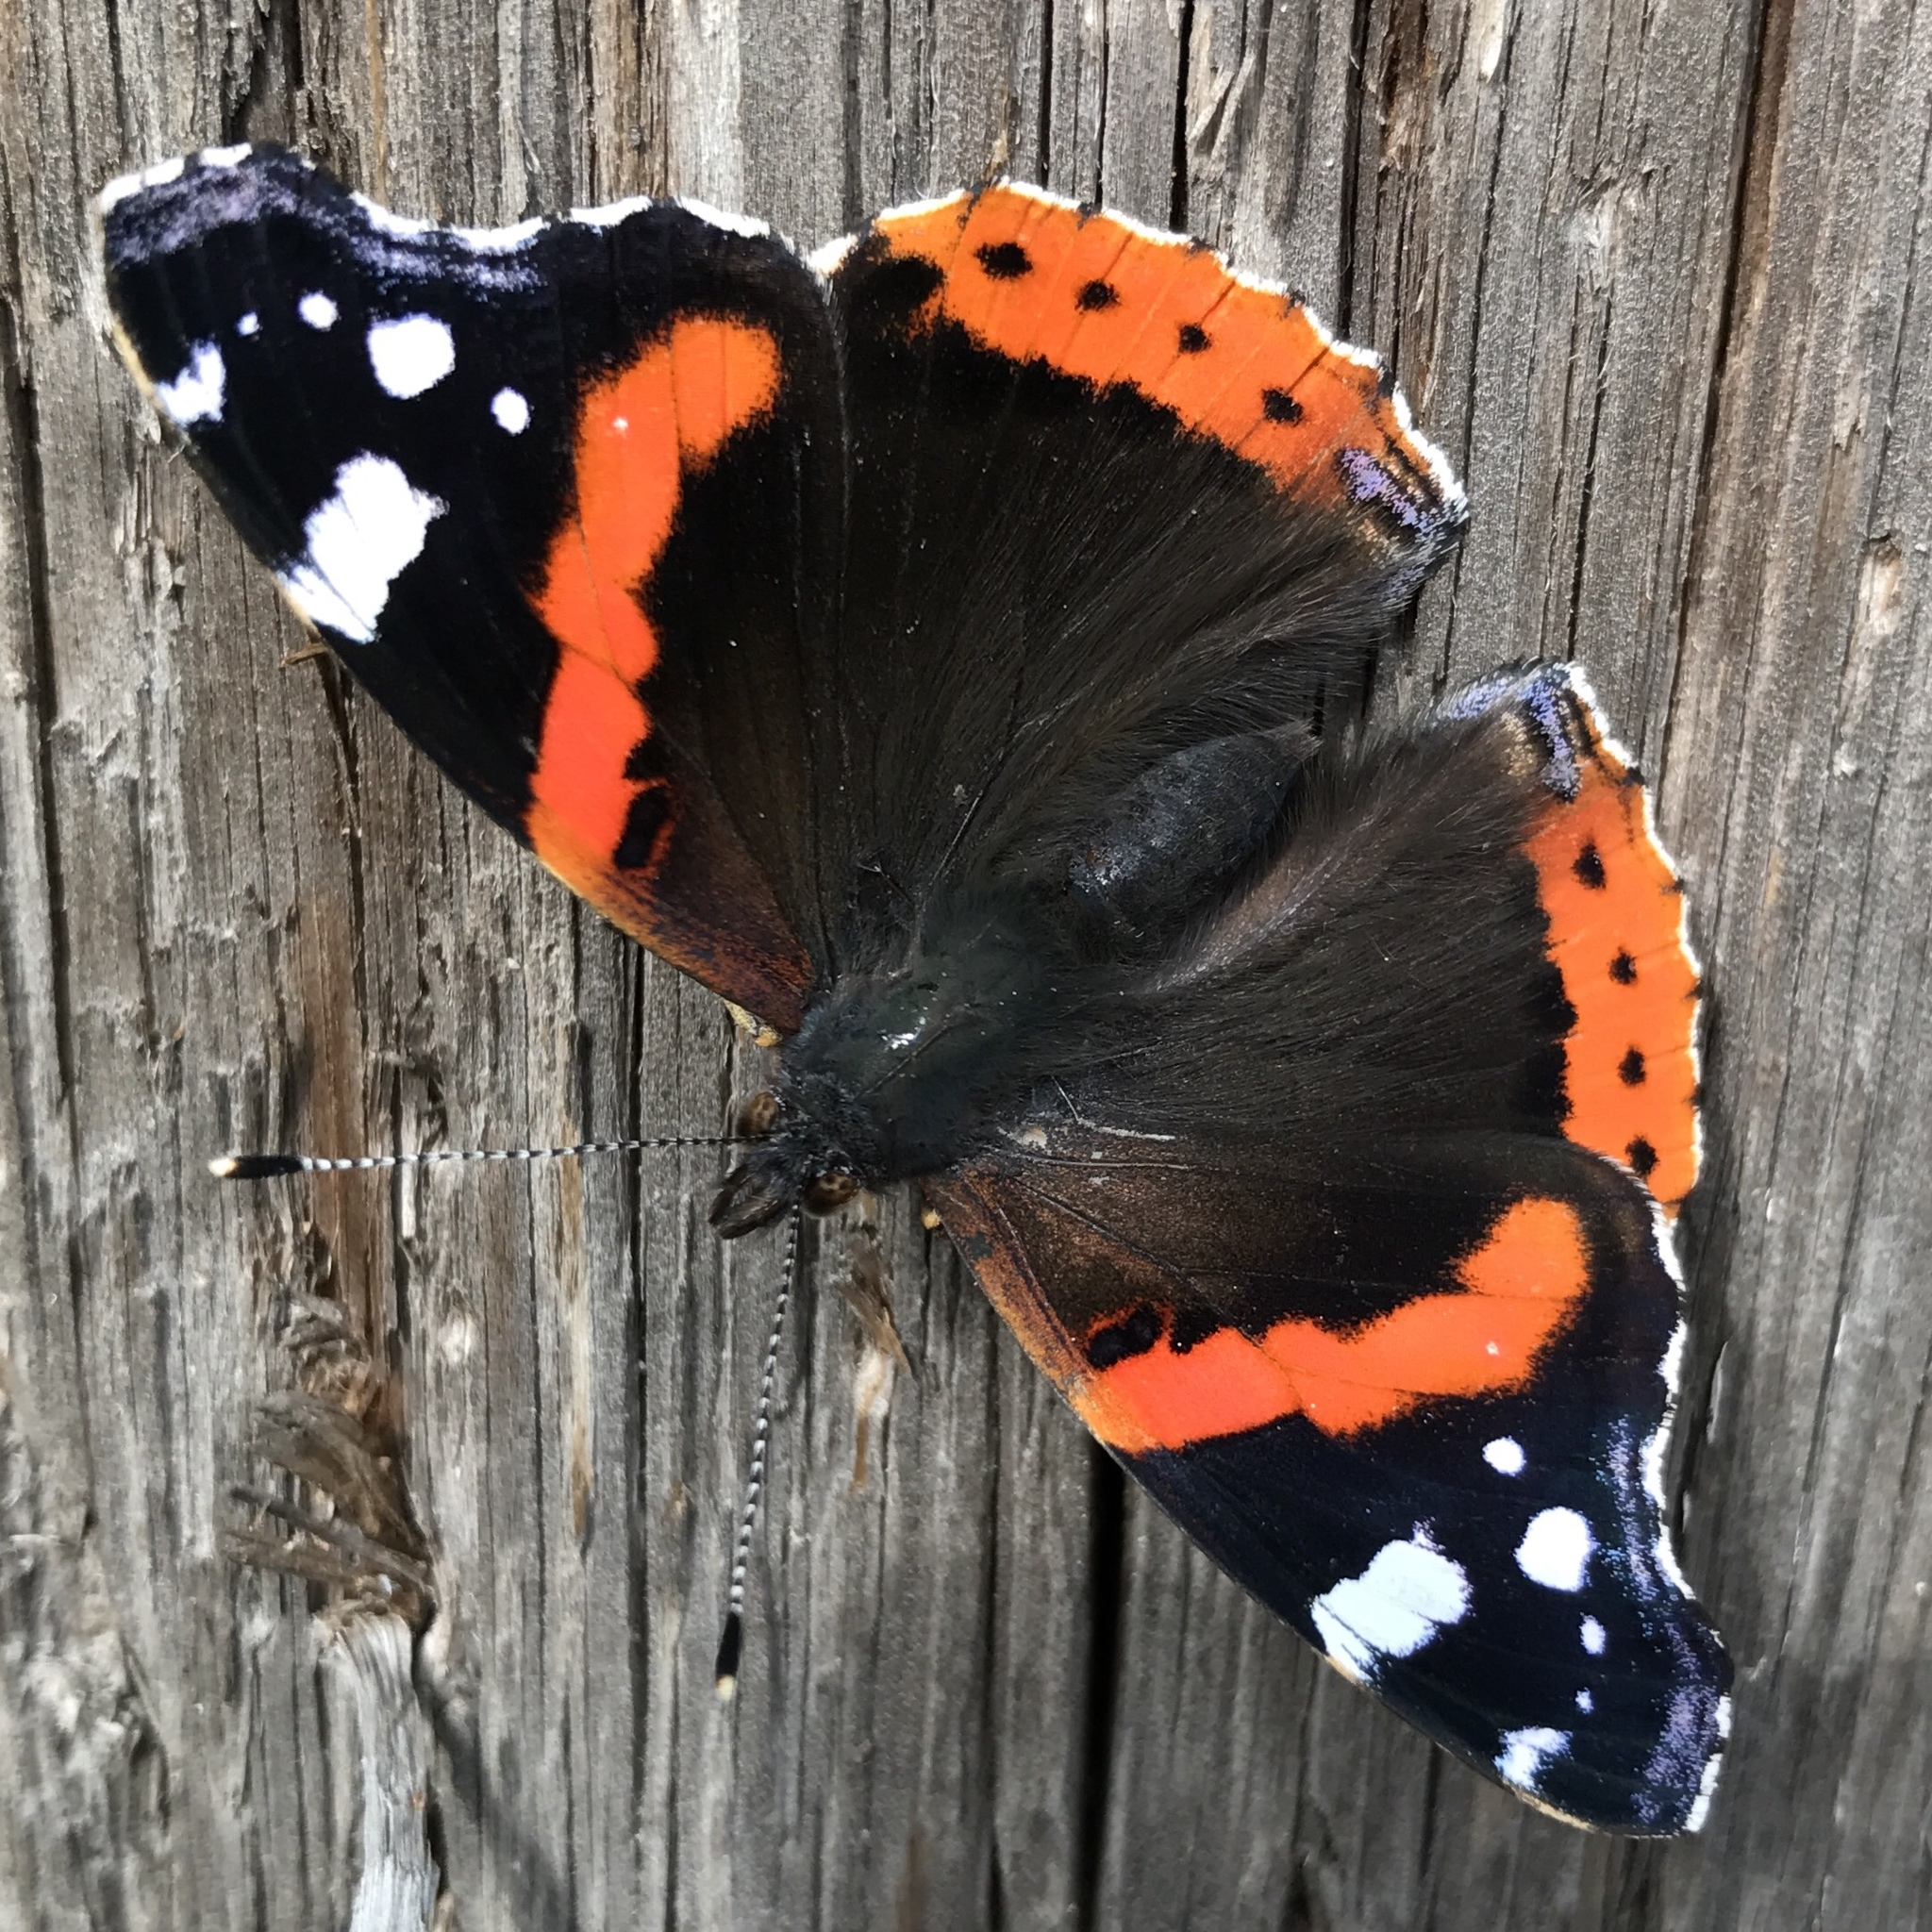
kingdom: Animalia
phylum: Arthropoda
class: Insecta
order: Lepidoptera
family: Nymphalidae
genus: Vanessa
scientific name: Vanessa atalanta
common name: Red admiral
